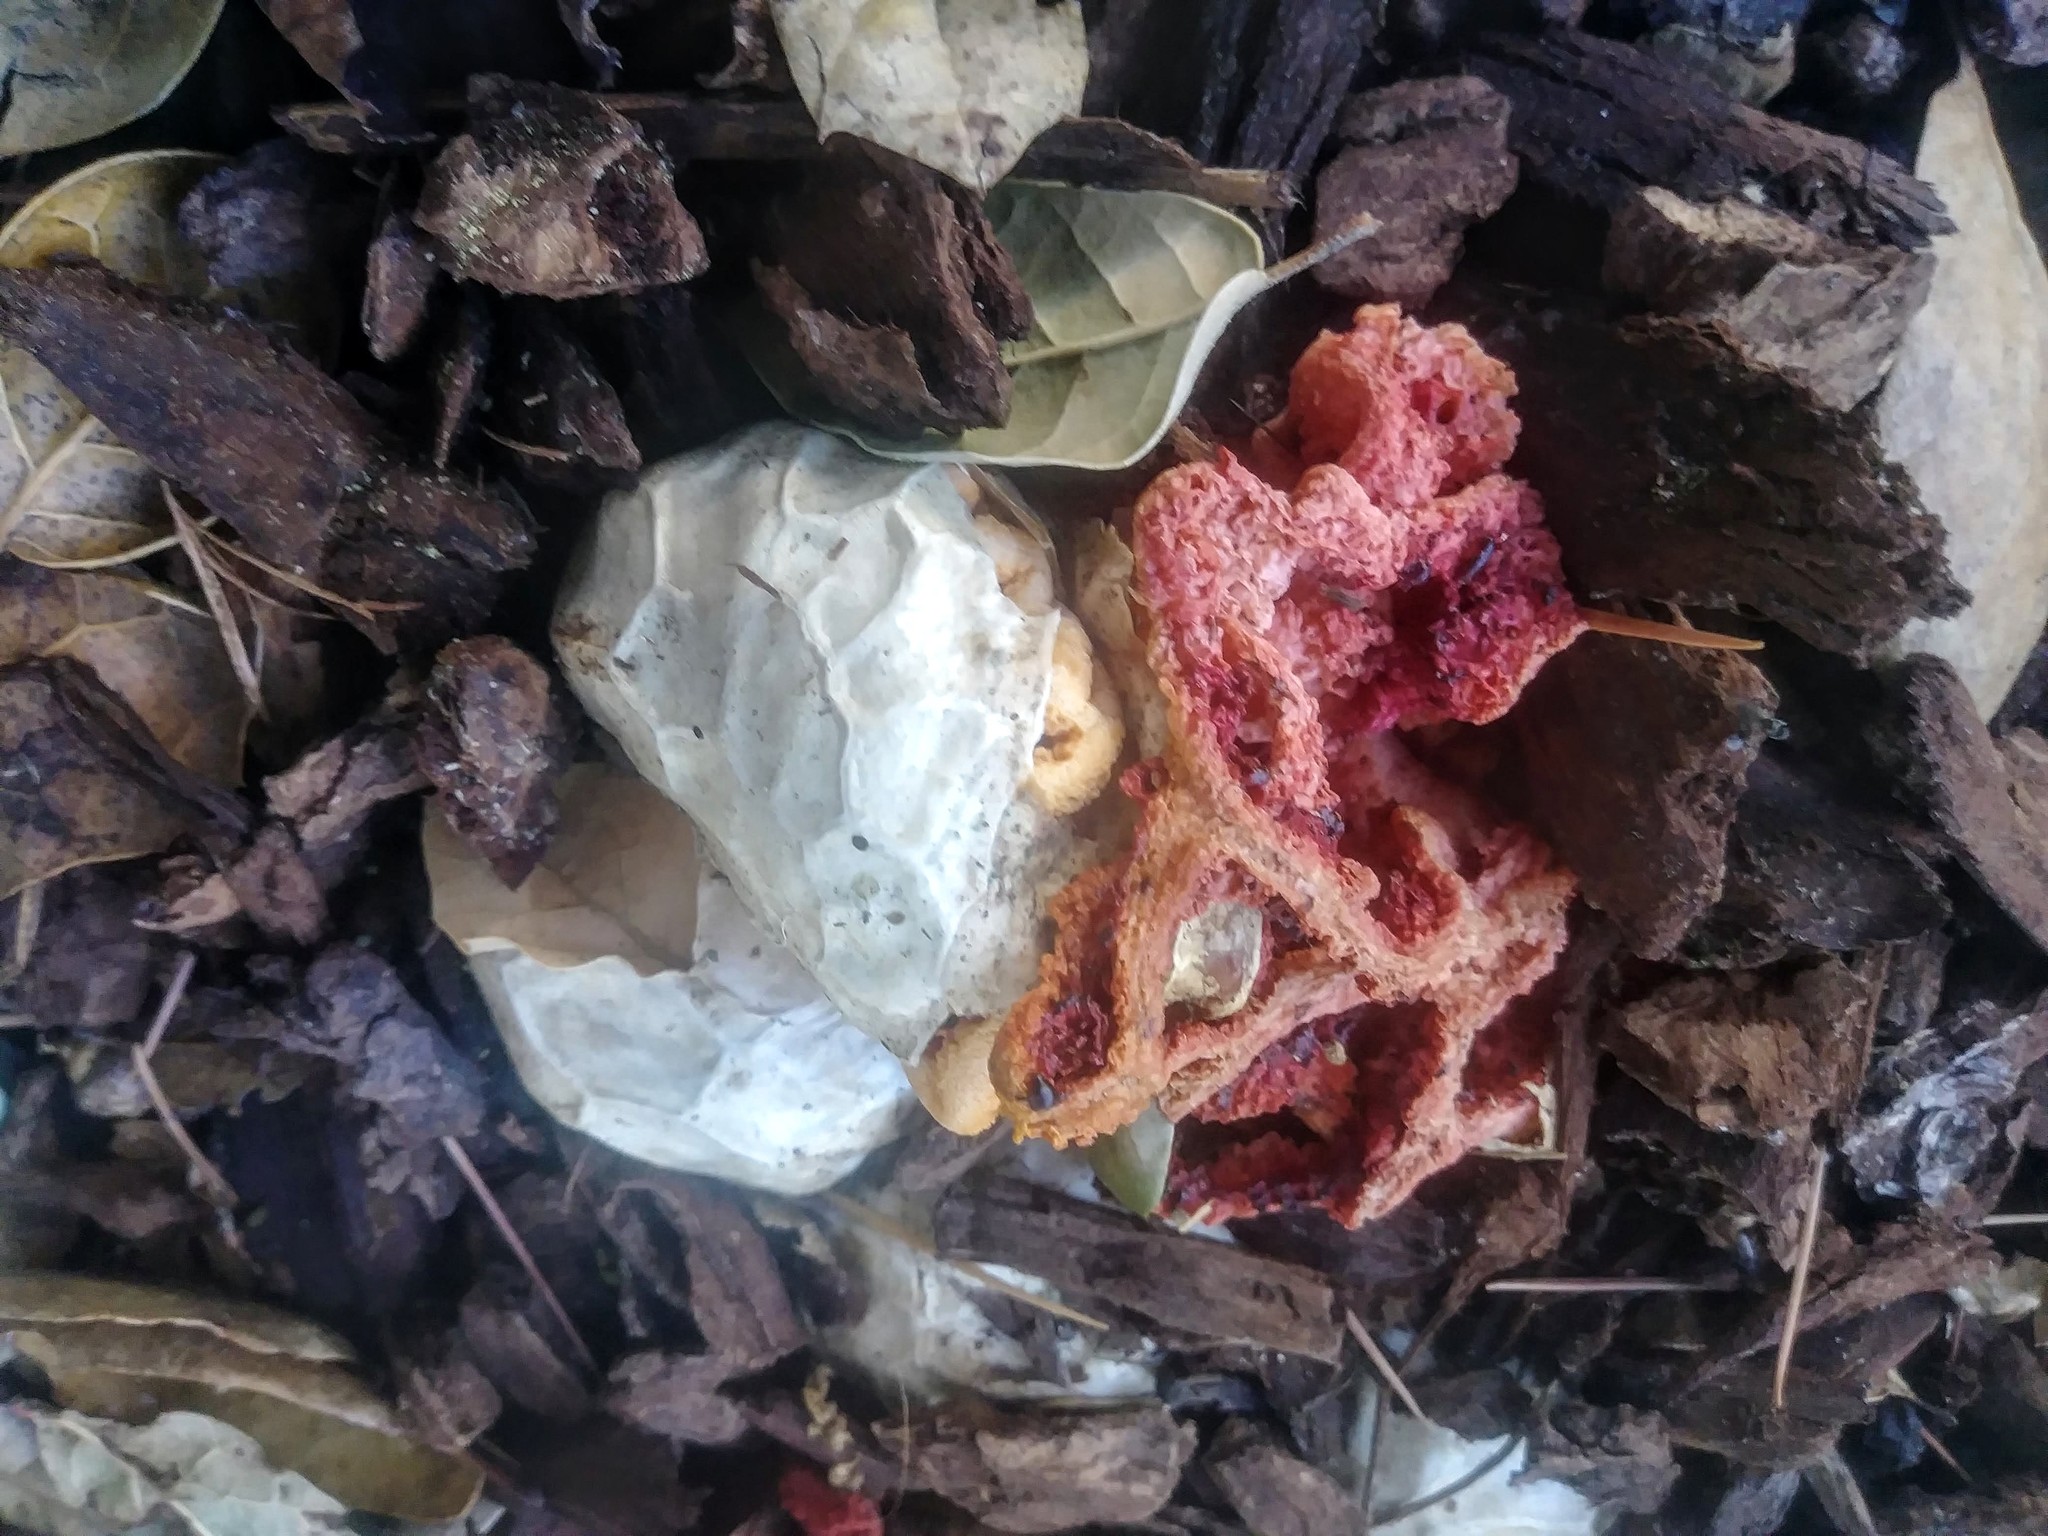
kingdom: Fungi
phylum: Basidiomycota
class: Agaricomycetes
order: Phallales
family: Phallaceae
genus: Clathrus
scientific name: Clathrus ruber
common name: Red cage
